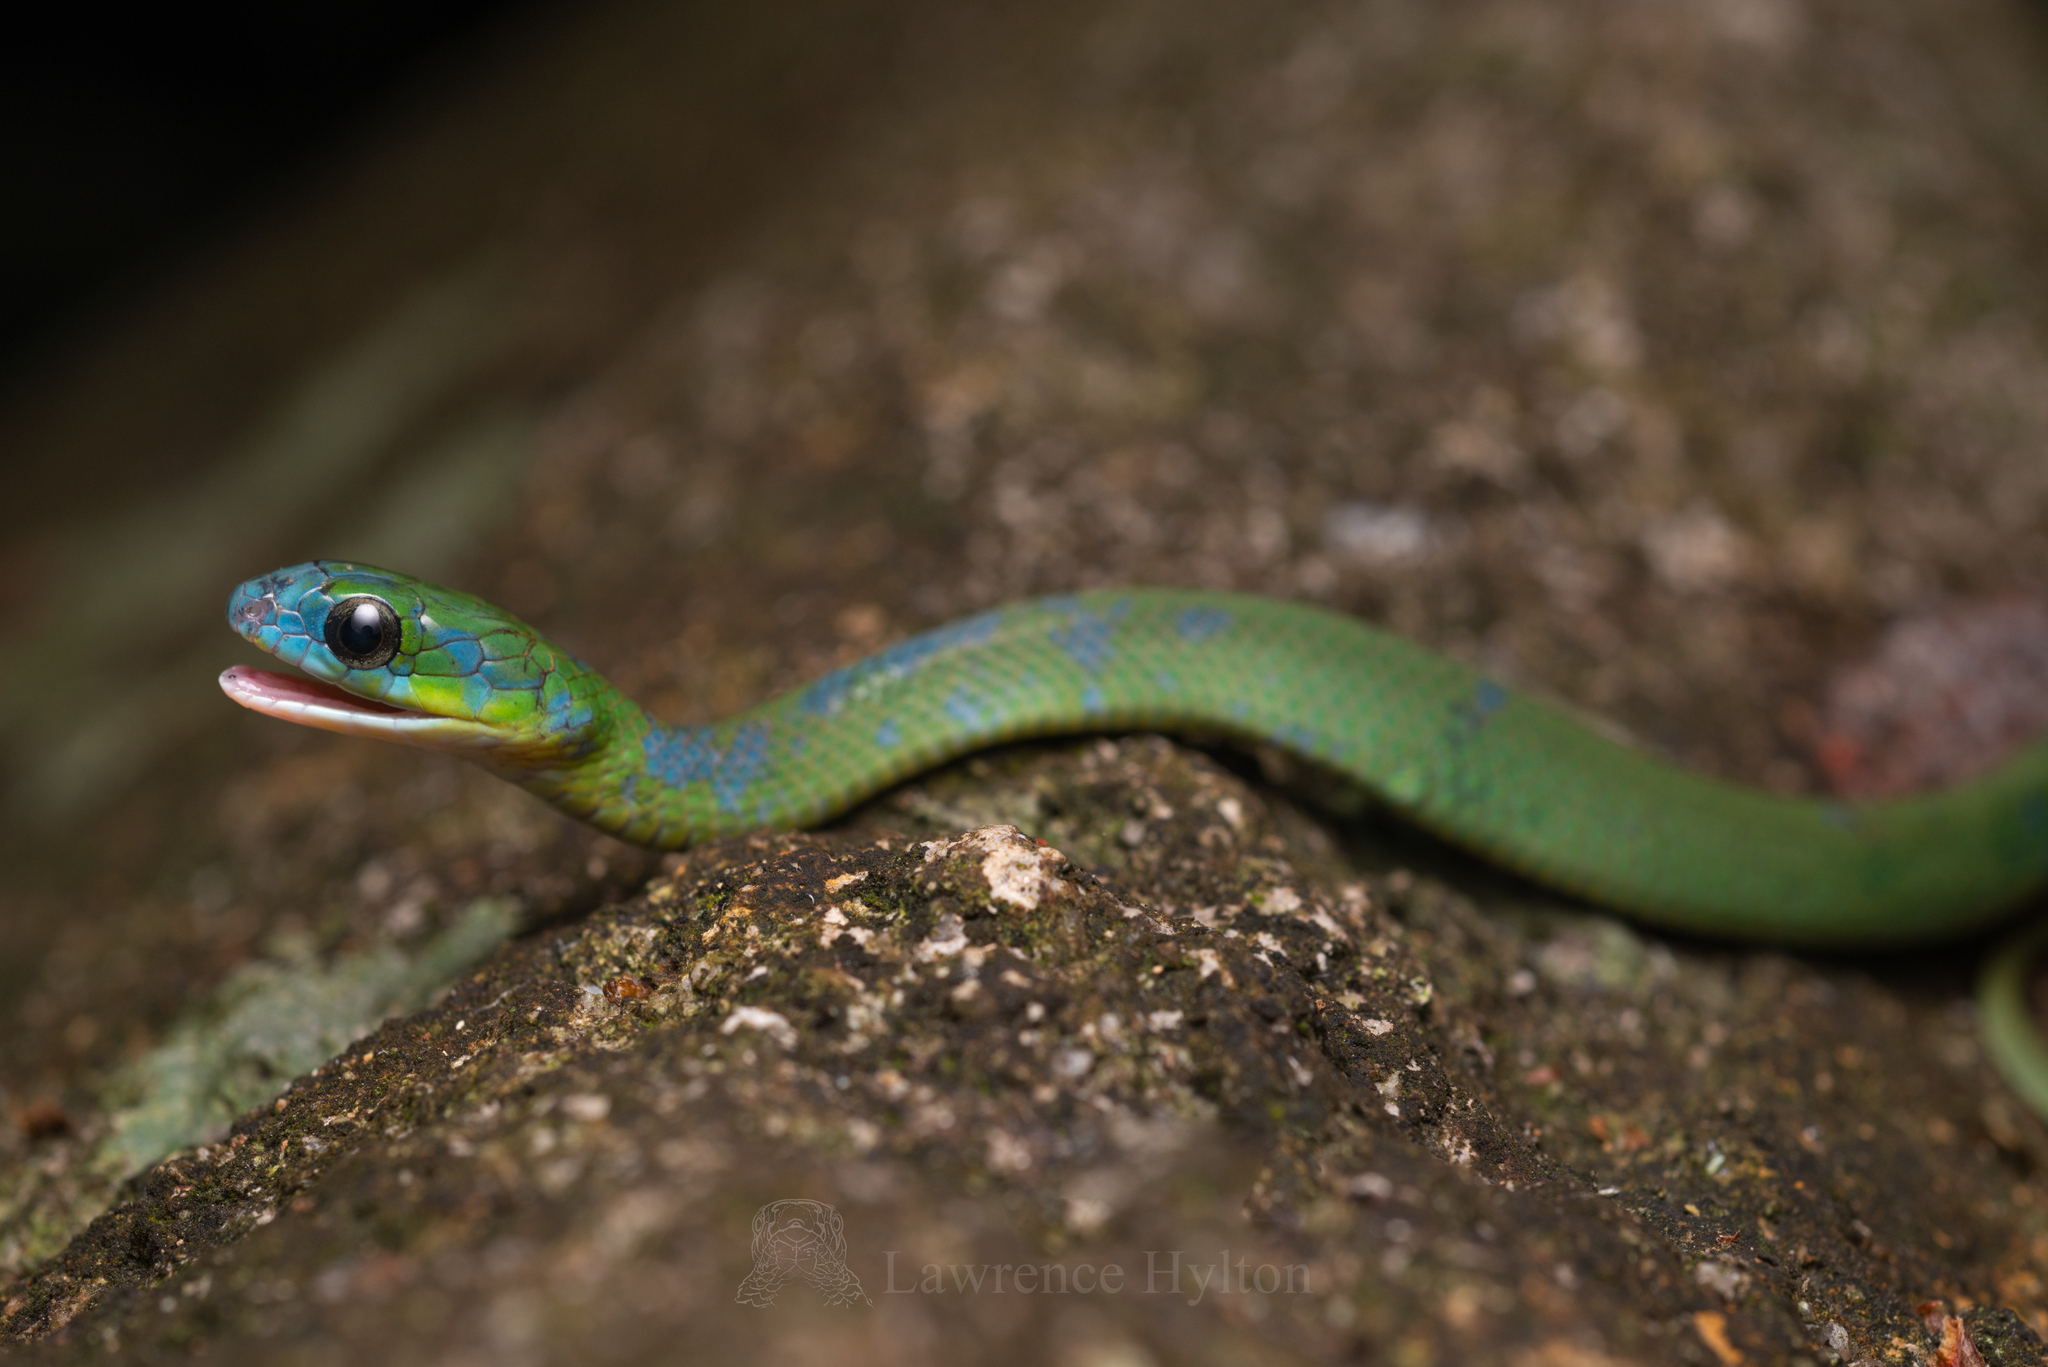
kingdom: Animalia
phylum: Chordata
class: Squamata
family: Colubridae
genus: Ptyas
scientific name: Ptyas major
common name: Chinese green snake
